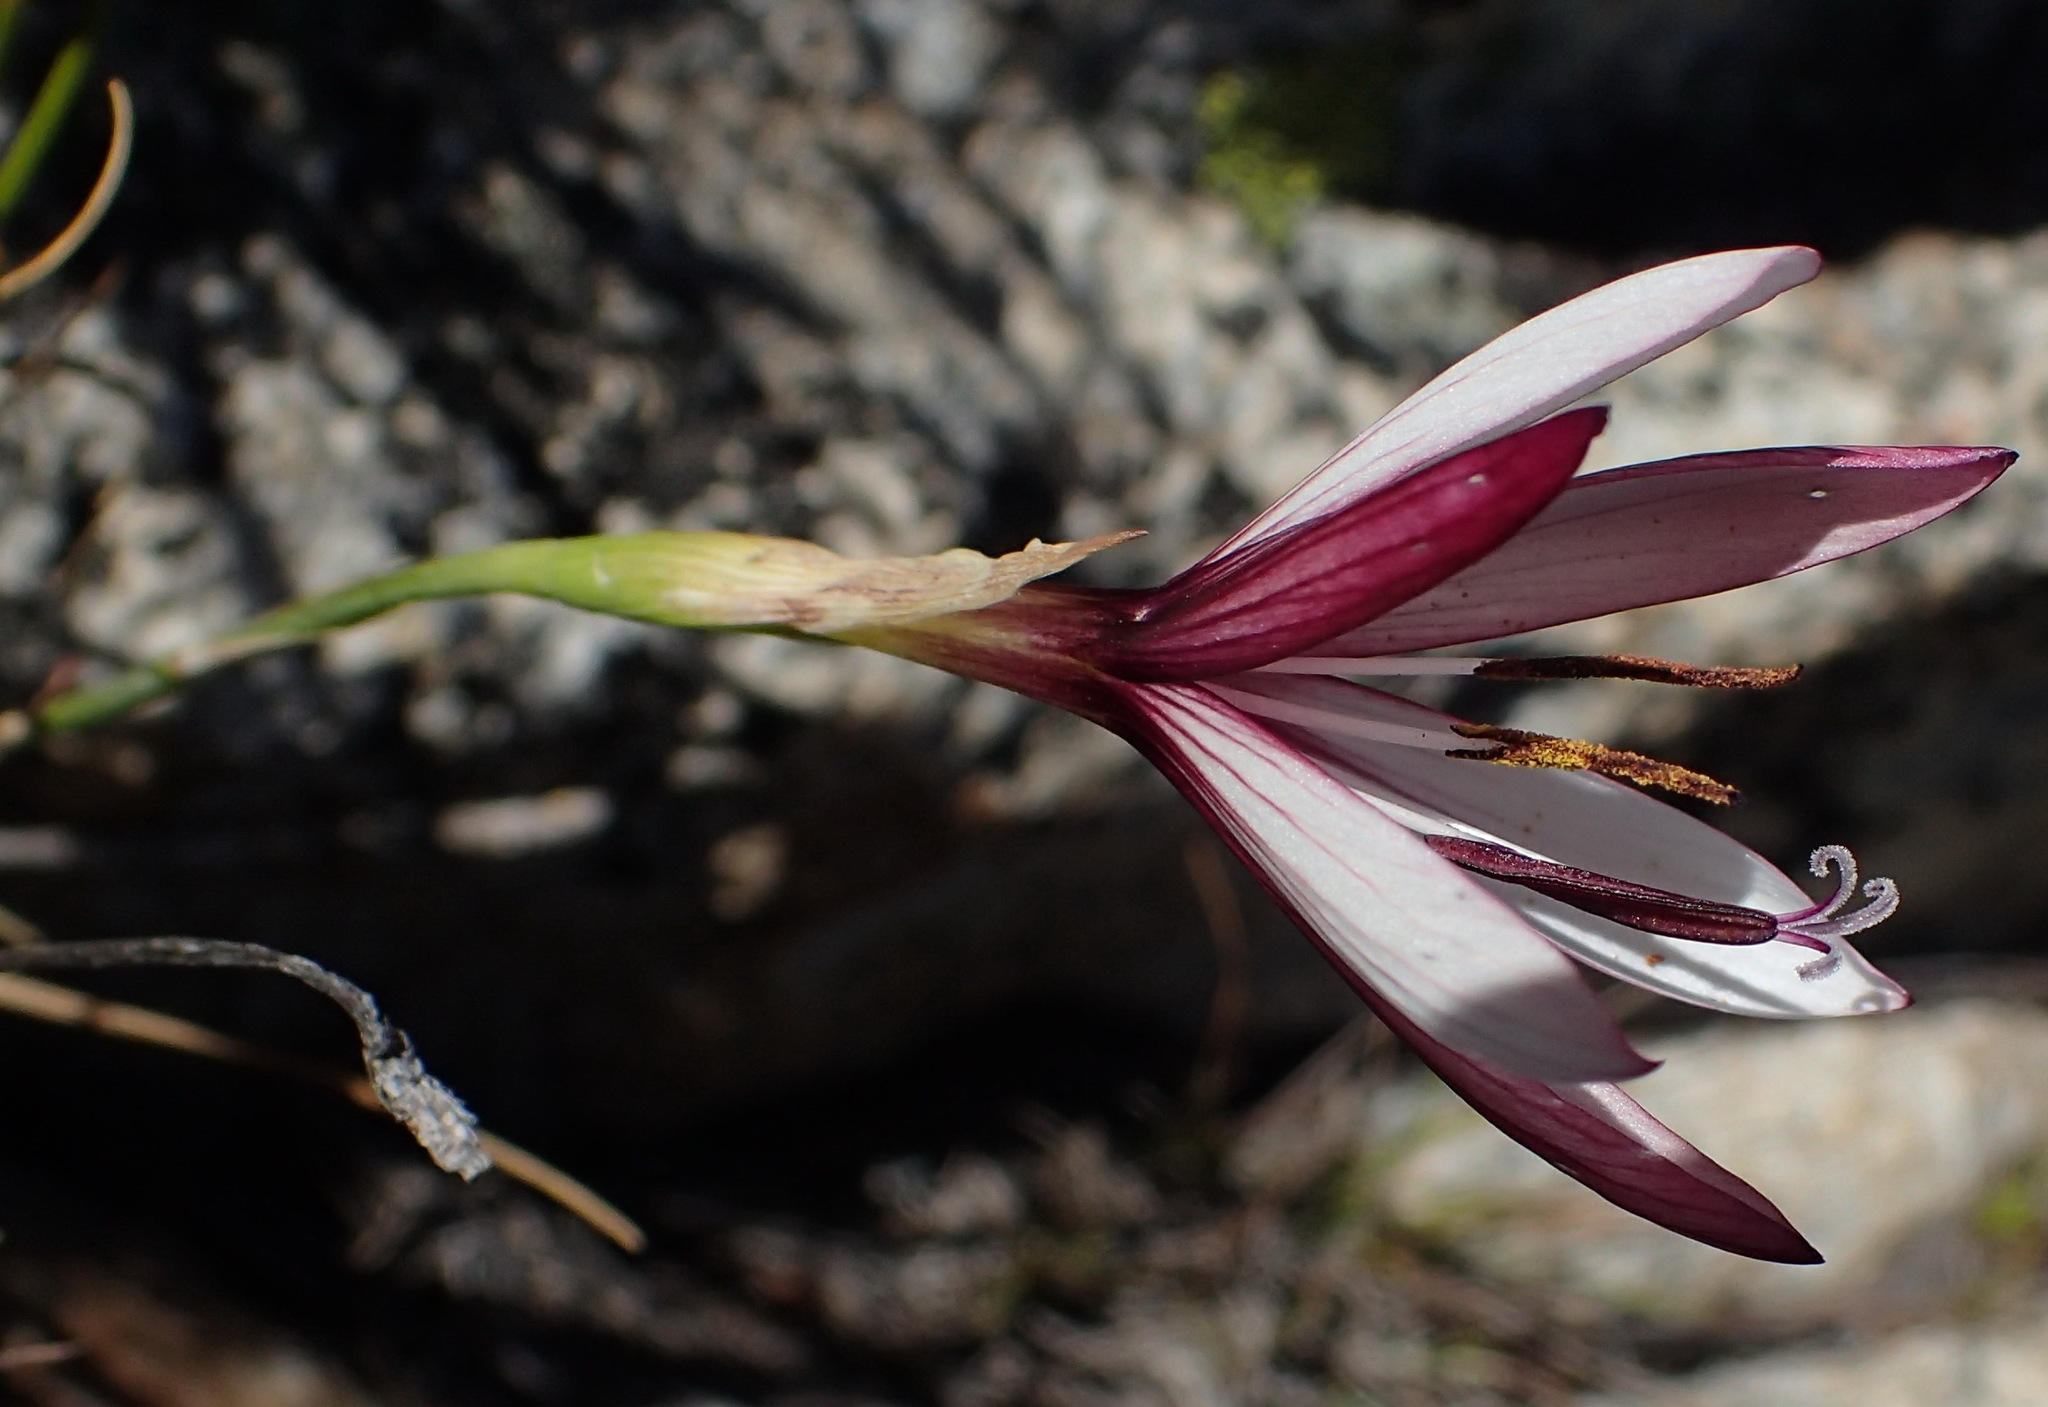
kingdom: Plantae
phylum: Tracheophyta
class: Liliopsida
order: Asparagales
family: Iridaceae
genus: Geissorhiza
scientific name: Geissorhiza fourcadei
